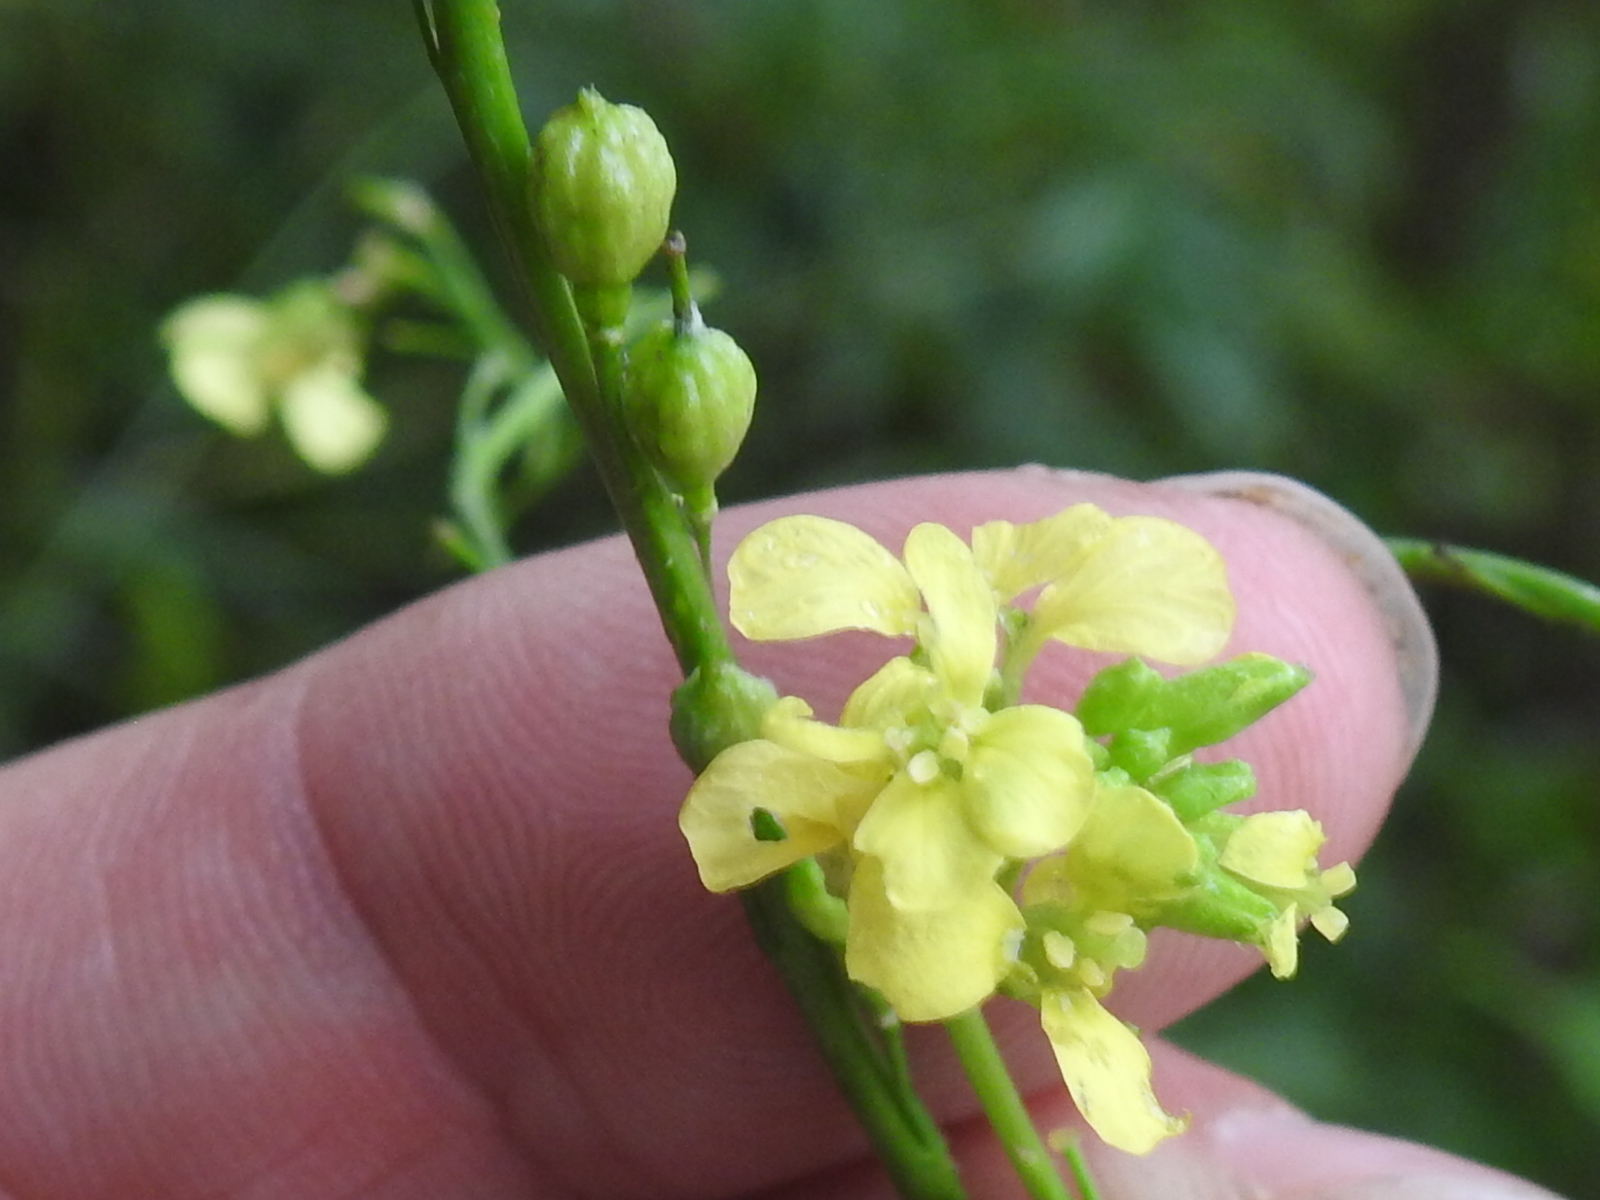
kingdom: Plantae
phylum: Tracheophyta
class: Magnoliopsida
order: Brassicales
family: Brassicaceae
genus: Rapistrum
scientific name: Rapistrum rugosum
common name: Annual bastardcabbage
